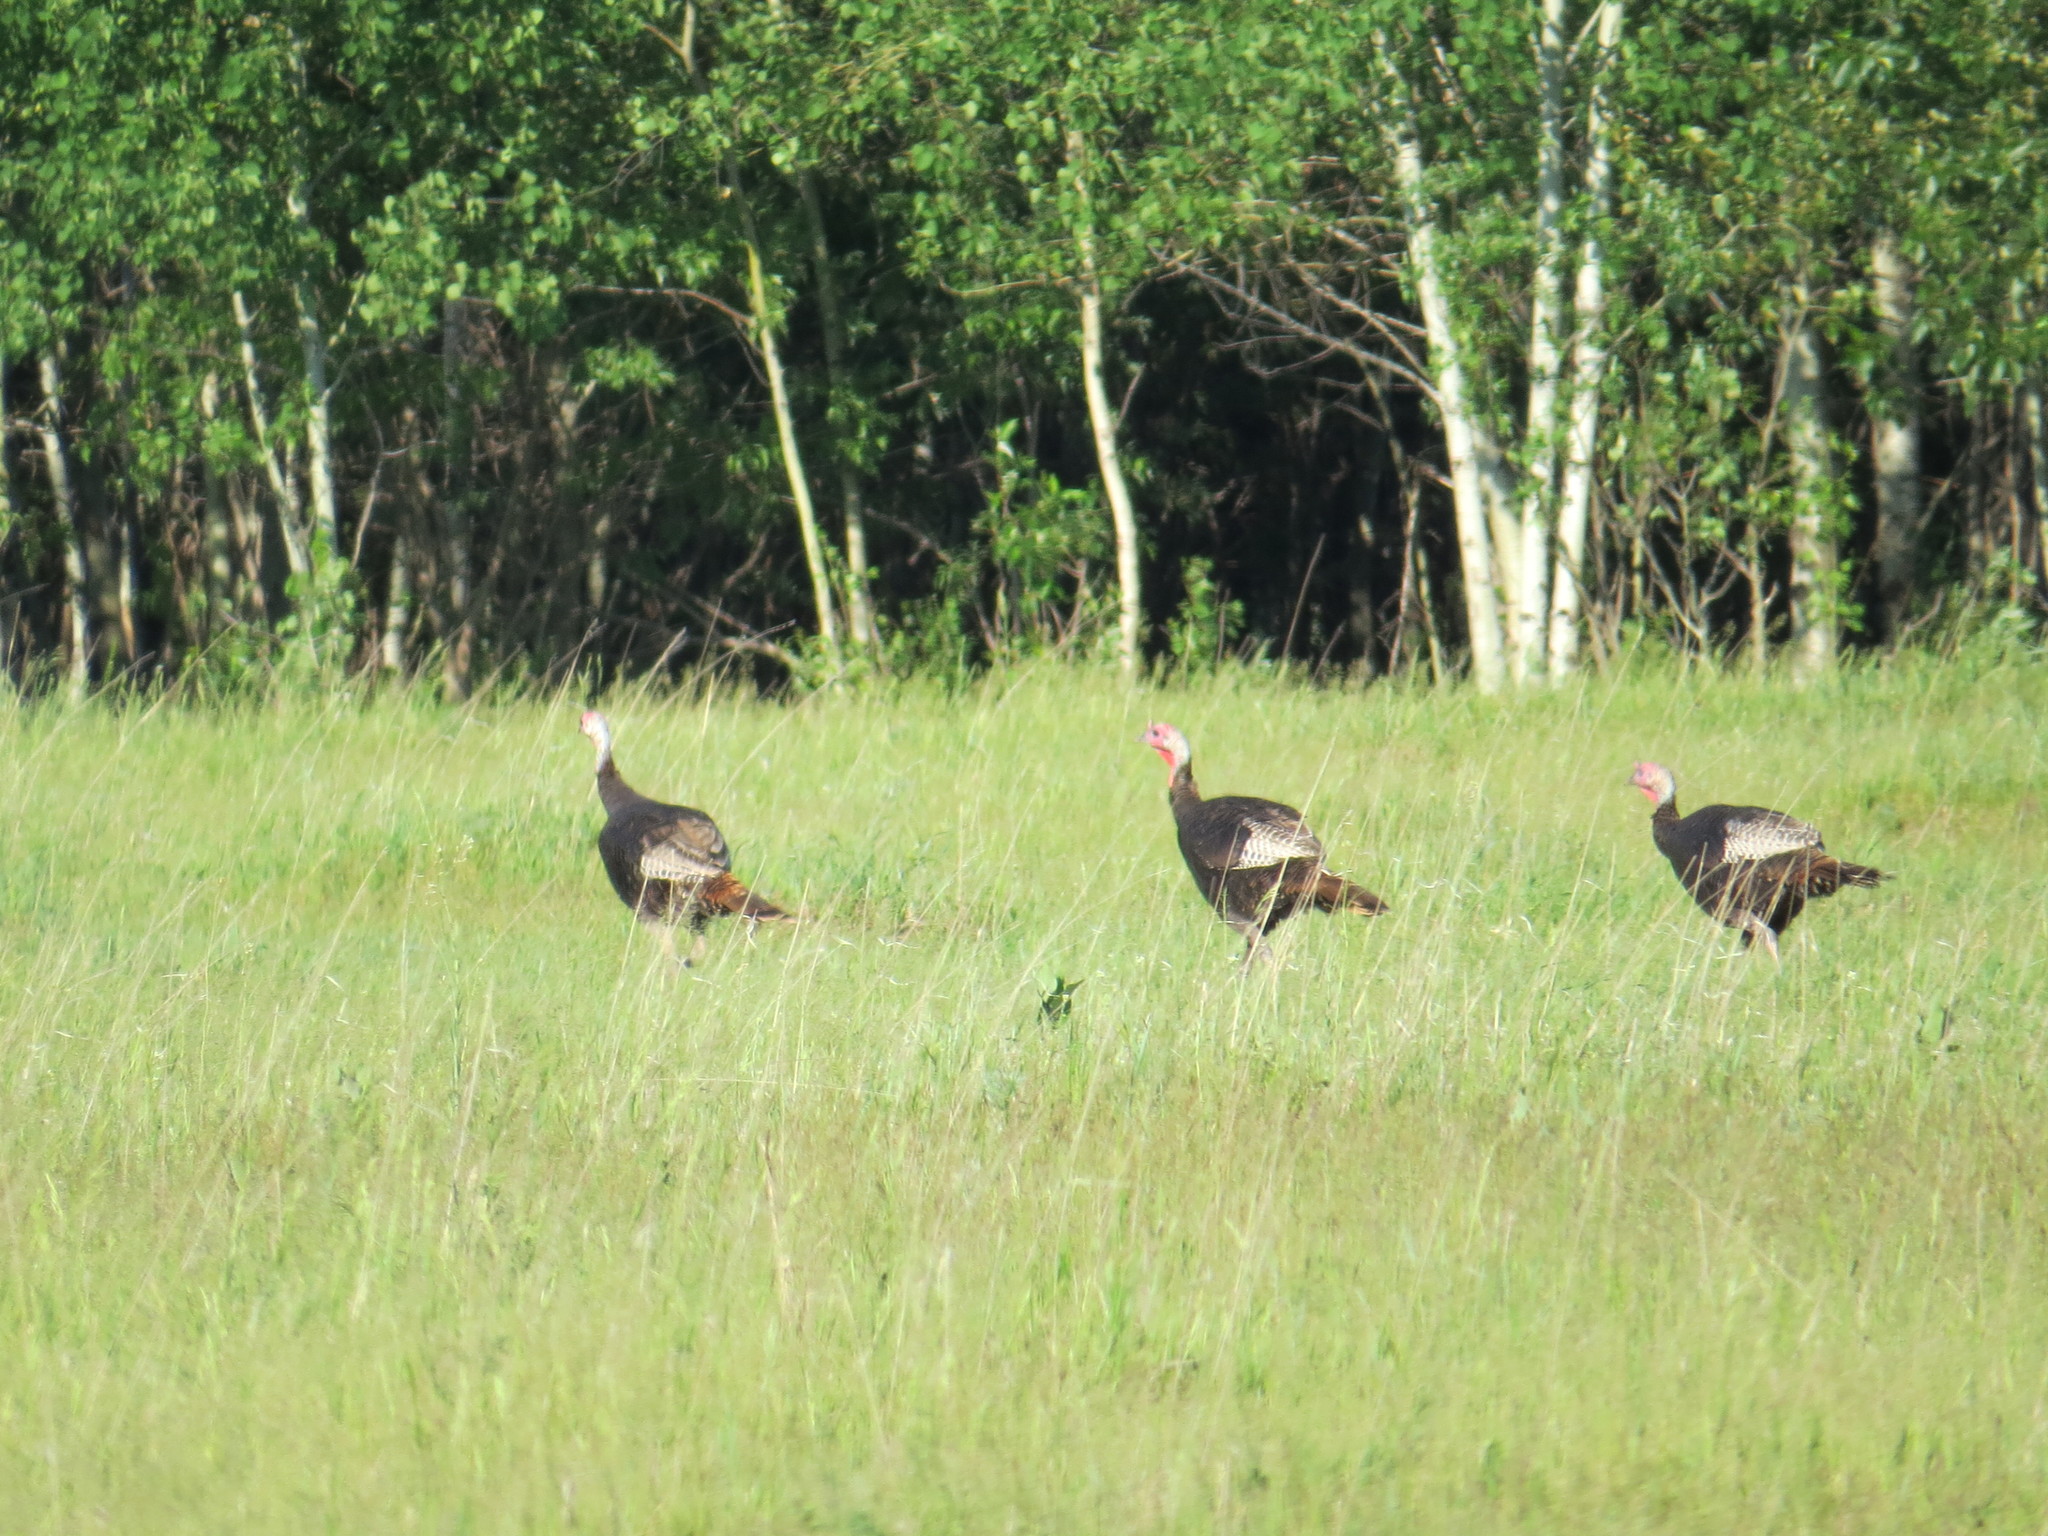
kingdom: Animalia
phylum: Chordata
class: Aves
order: Galliformes
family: Phasianidae
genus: Meleagris
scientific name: Meleagris gallopavo
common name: Wild turkey
